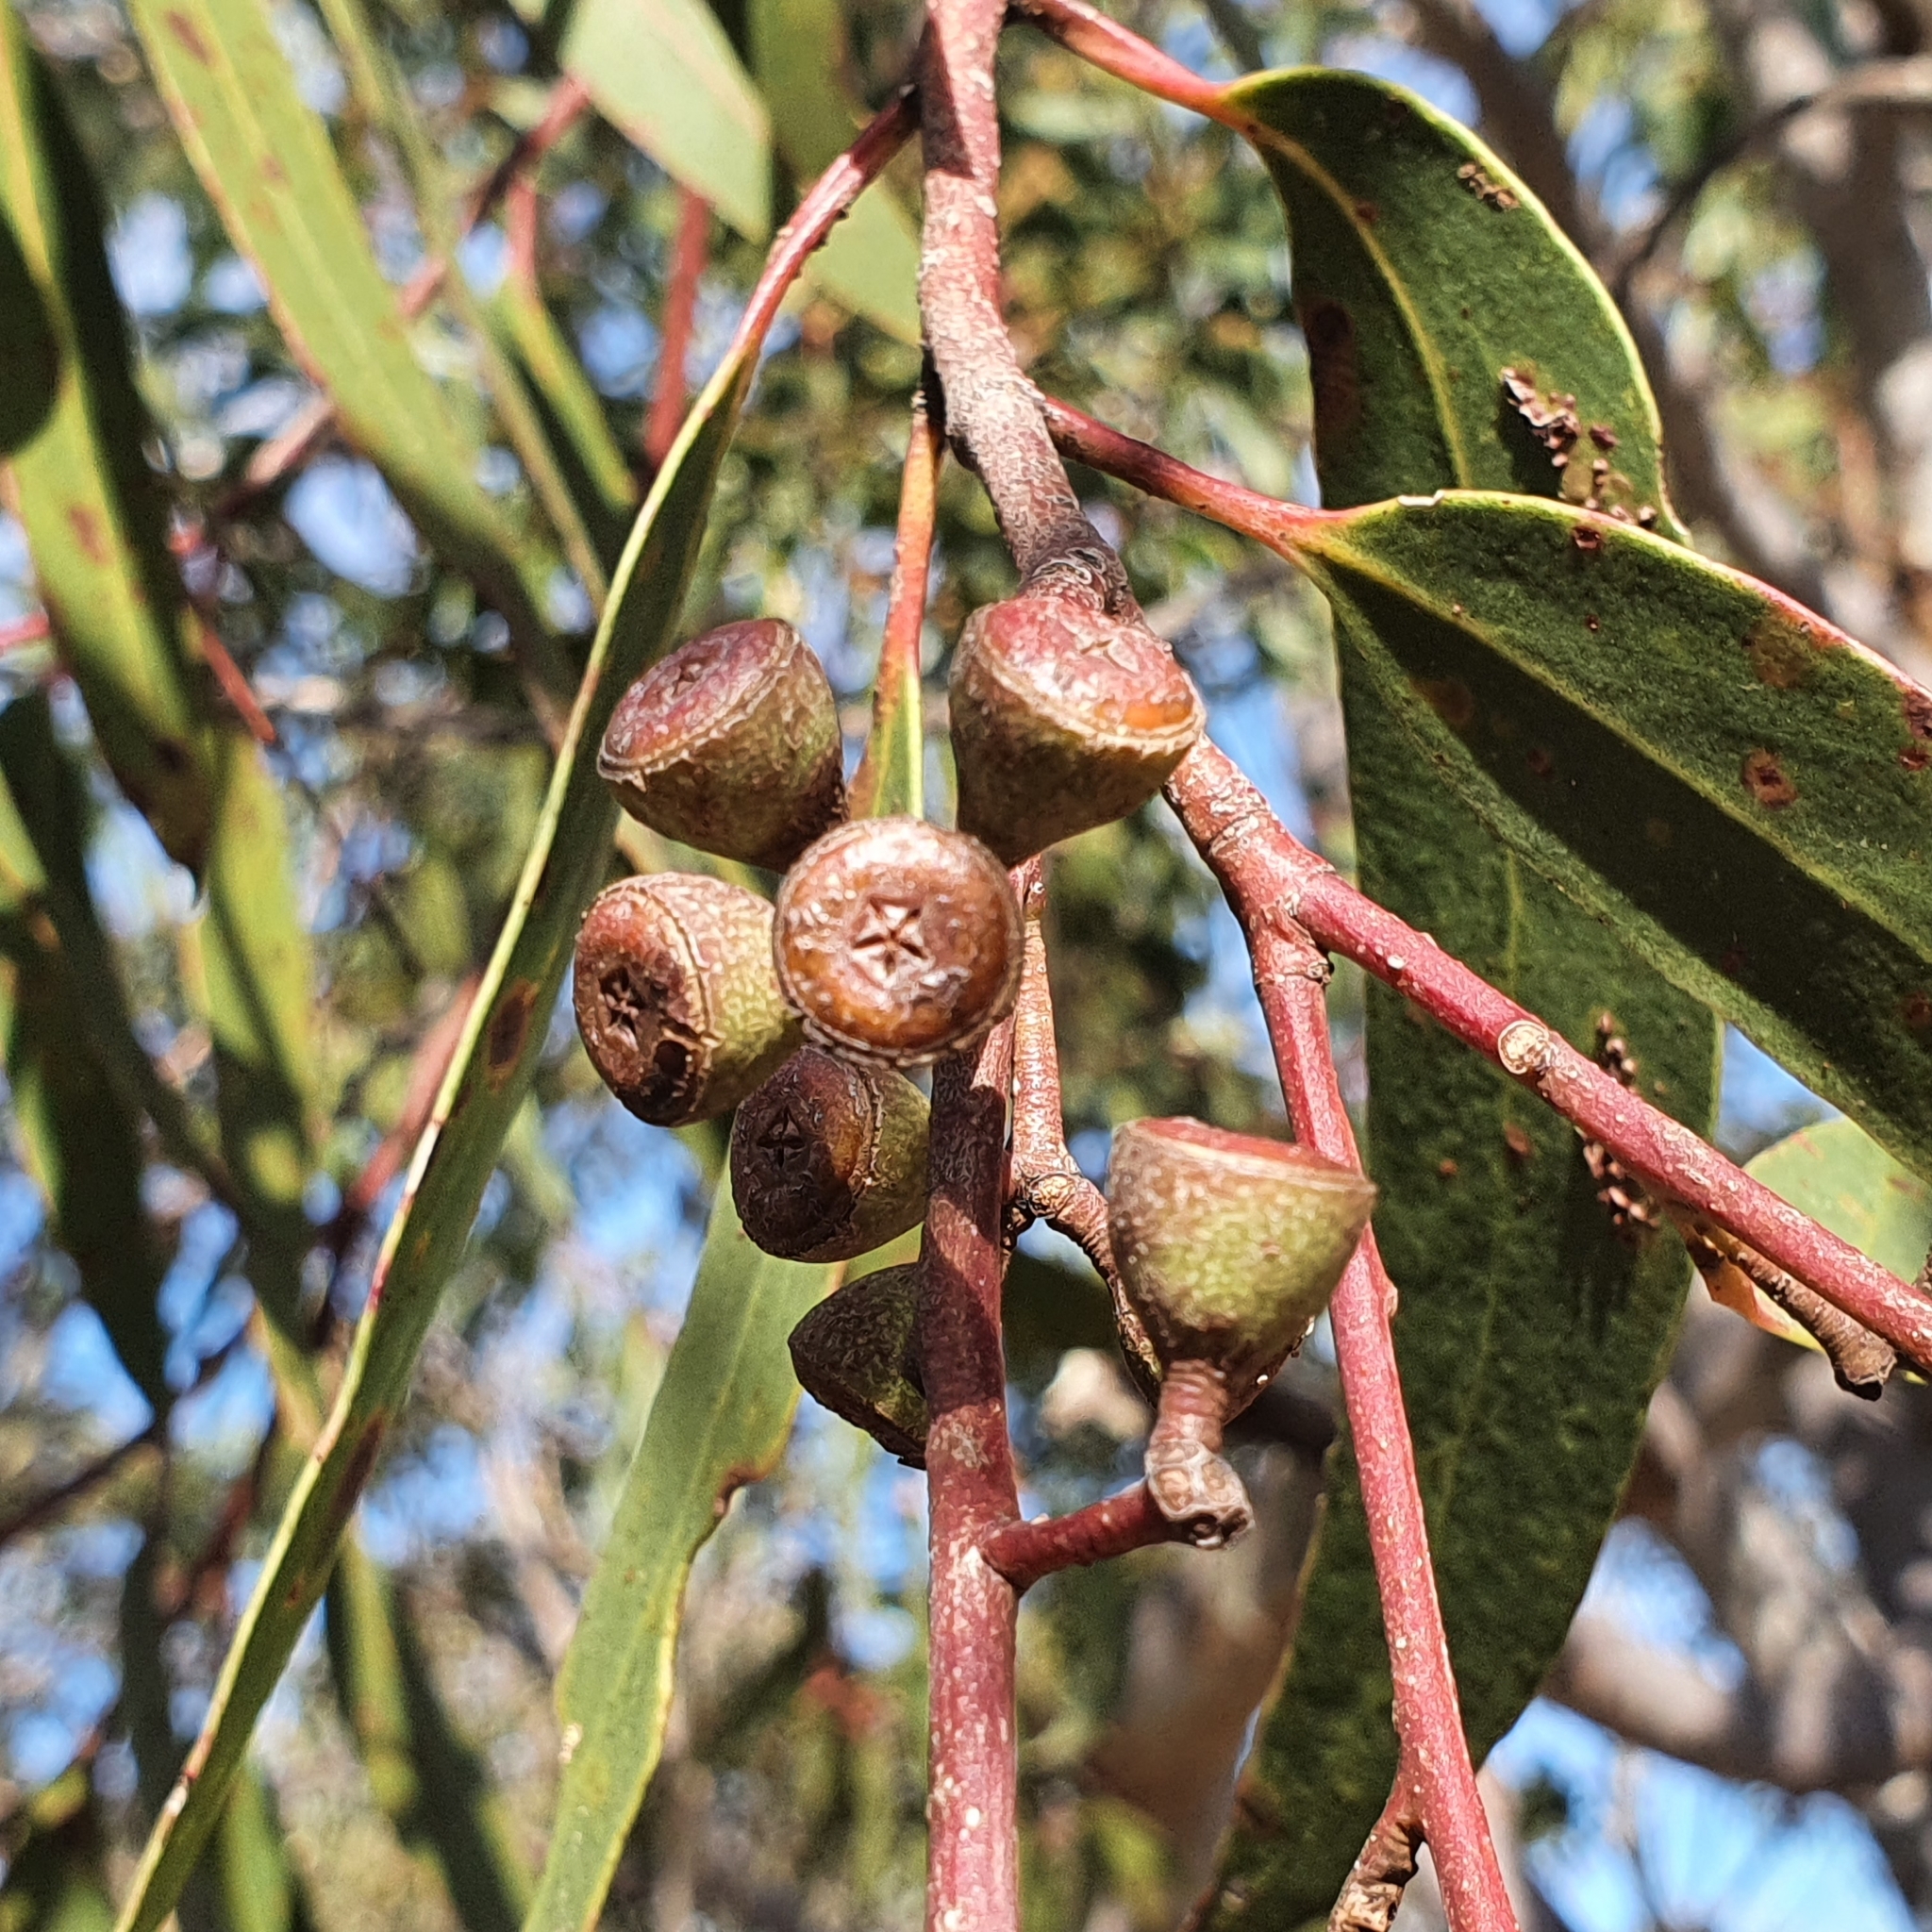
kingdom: Plantae
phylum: Tracheophyta
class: Magnoliopsida
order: Myrtales
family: Myrtaceae
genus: Eucalyptus
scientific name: Eucalyptus haemastoma
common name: Scribbly-gum
